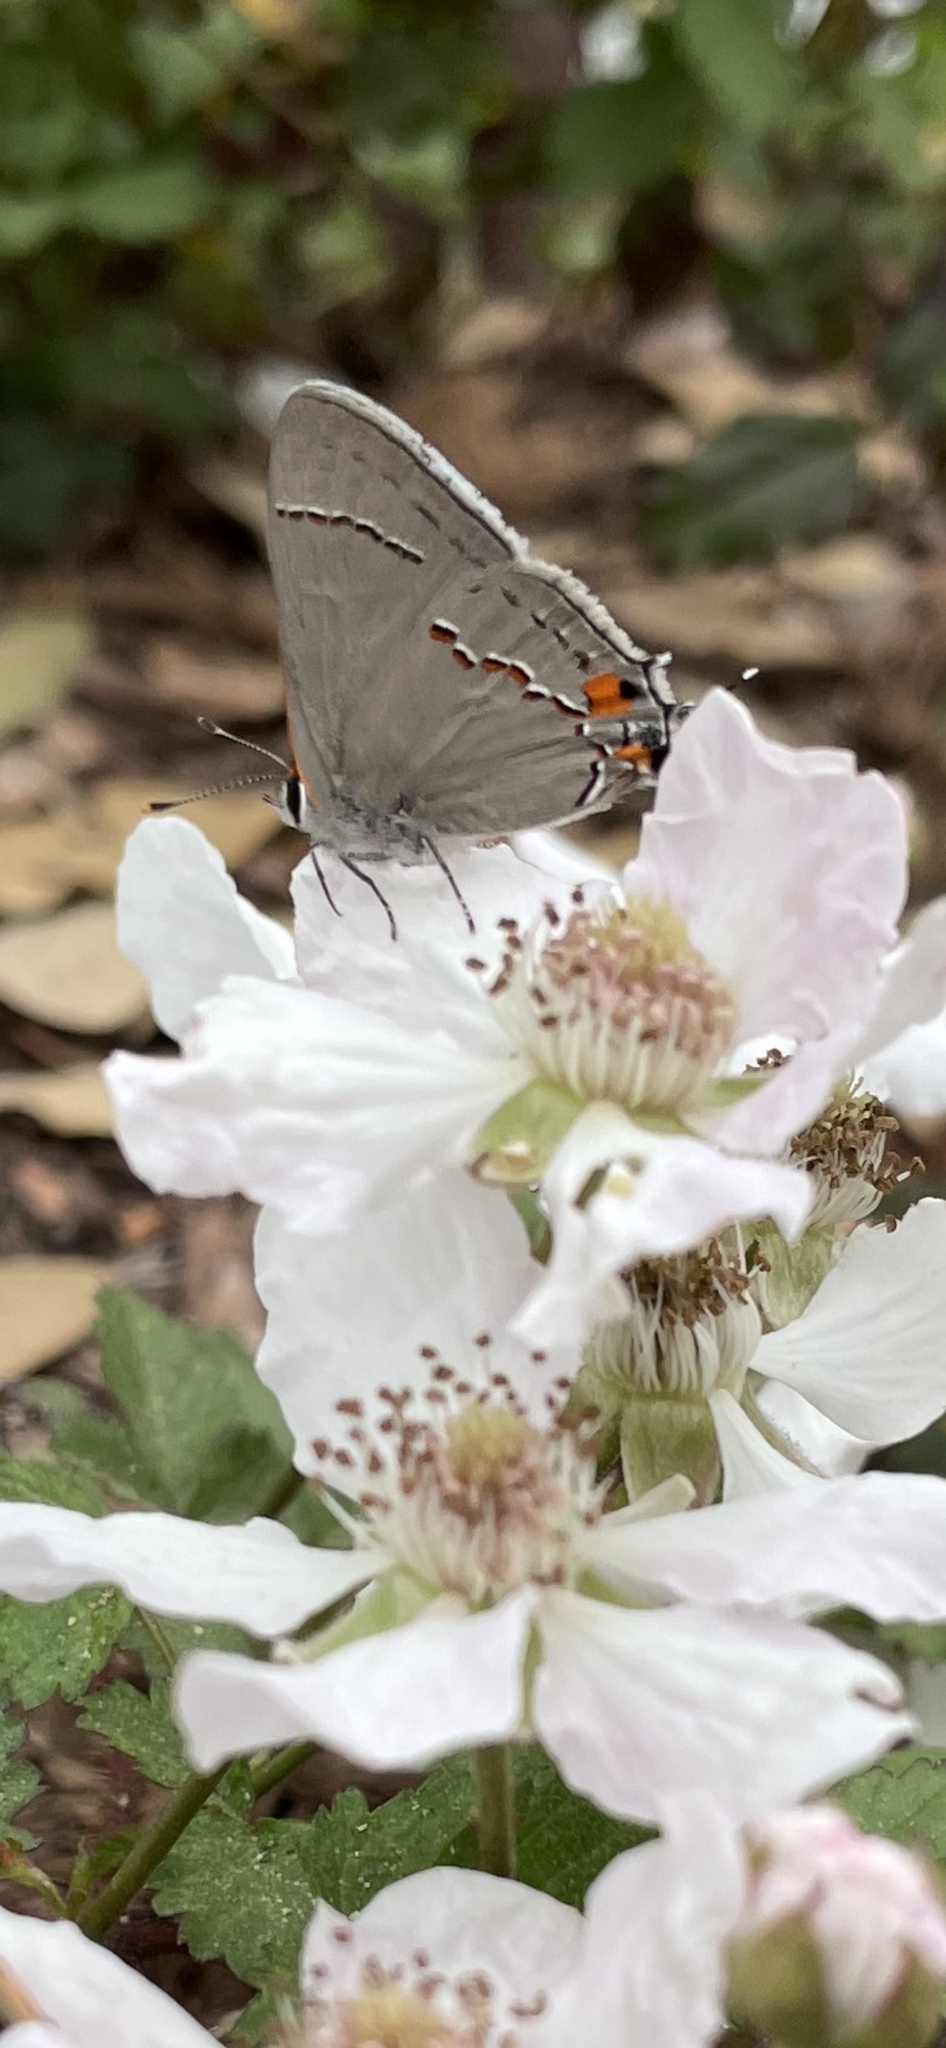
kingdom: Animalia
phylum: Arthropoda
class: Insecta
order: Lepidoptera
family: Lycaenidae
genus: Strymon
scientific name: Strymon melinus
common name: Gray hairstreak
